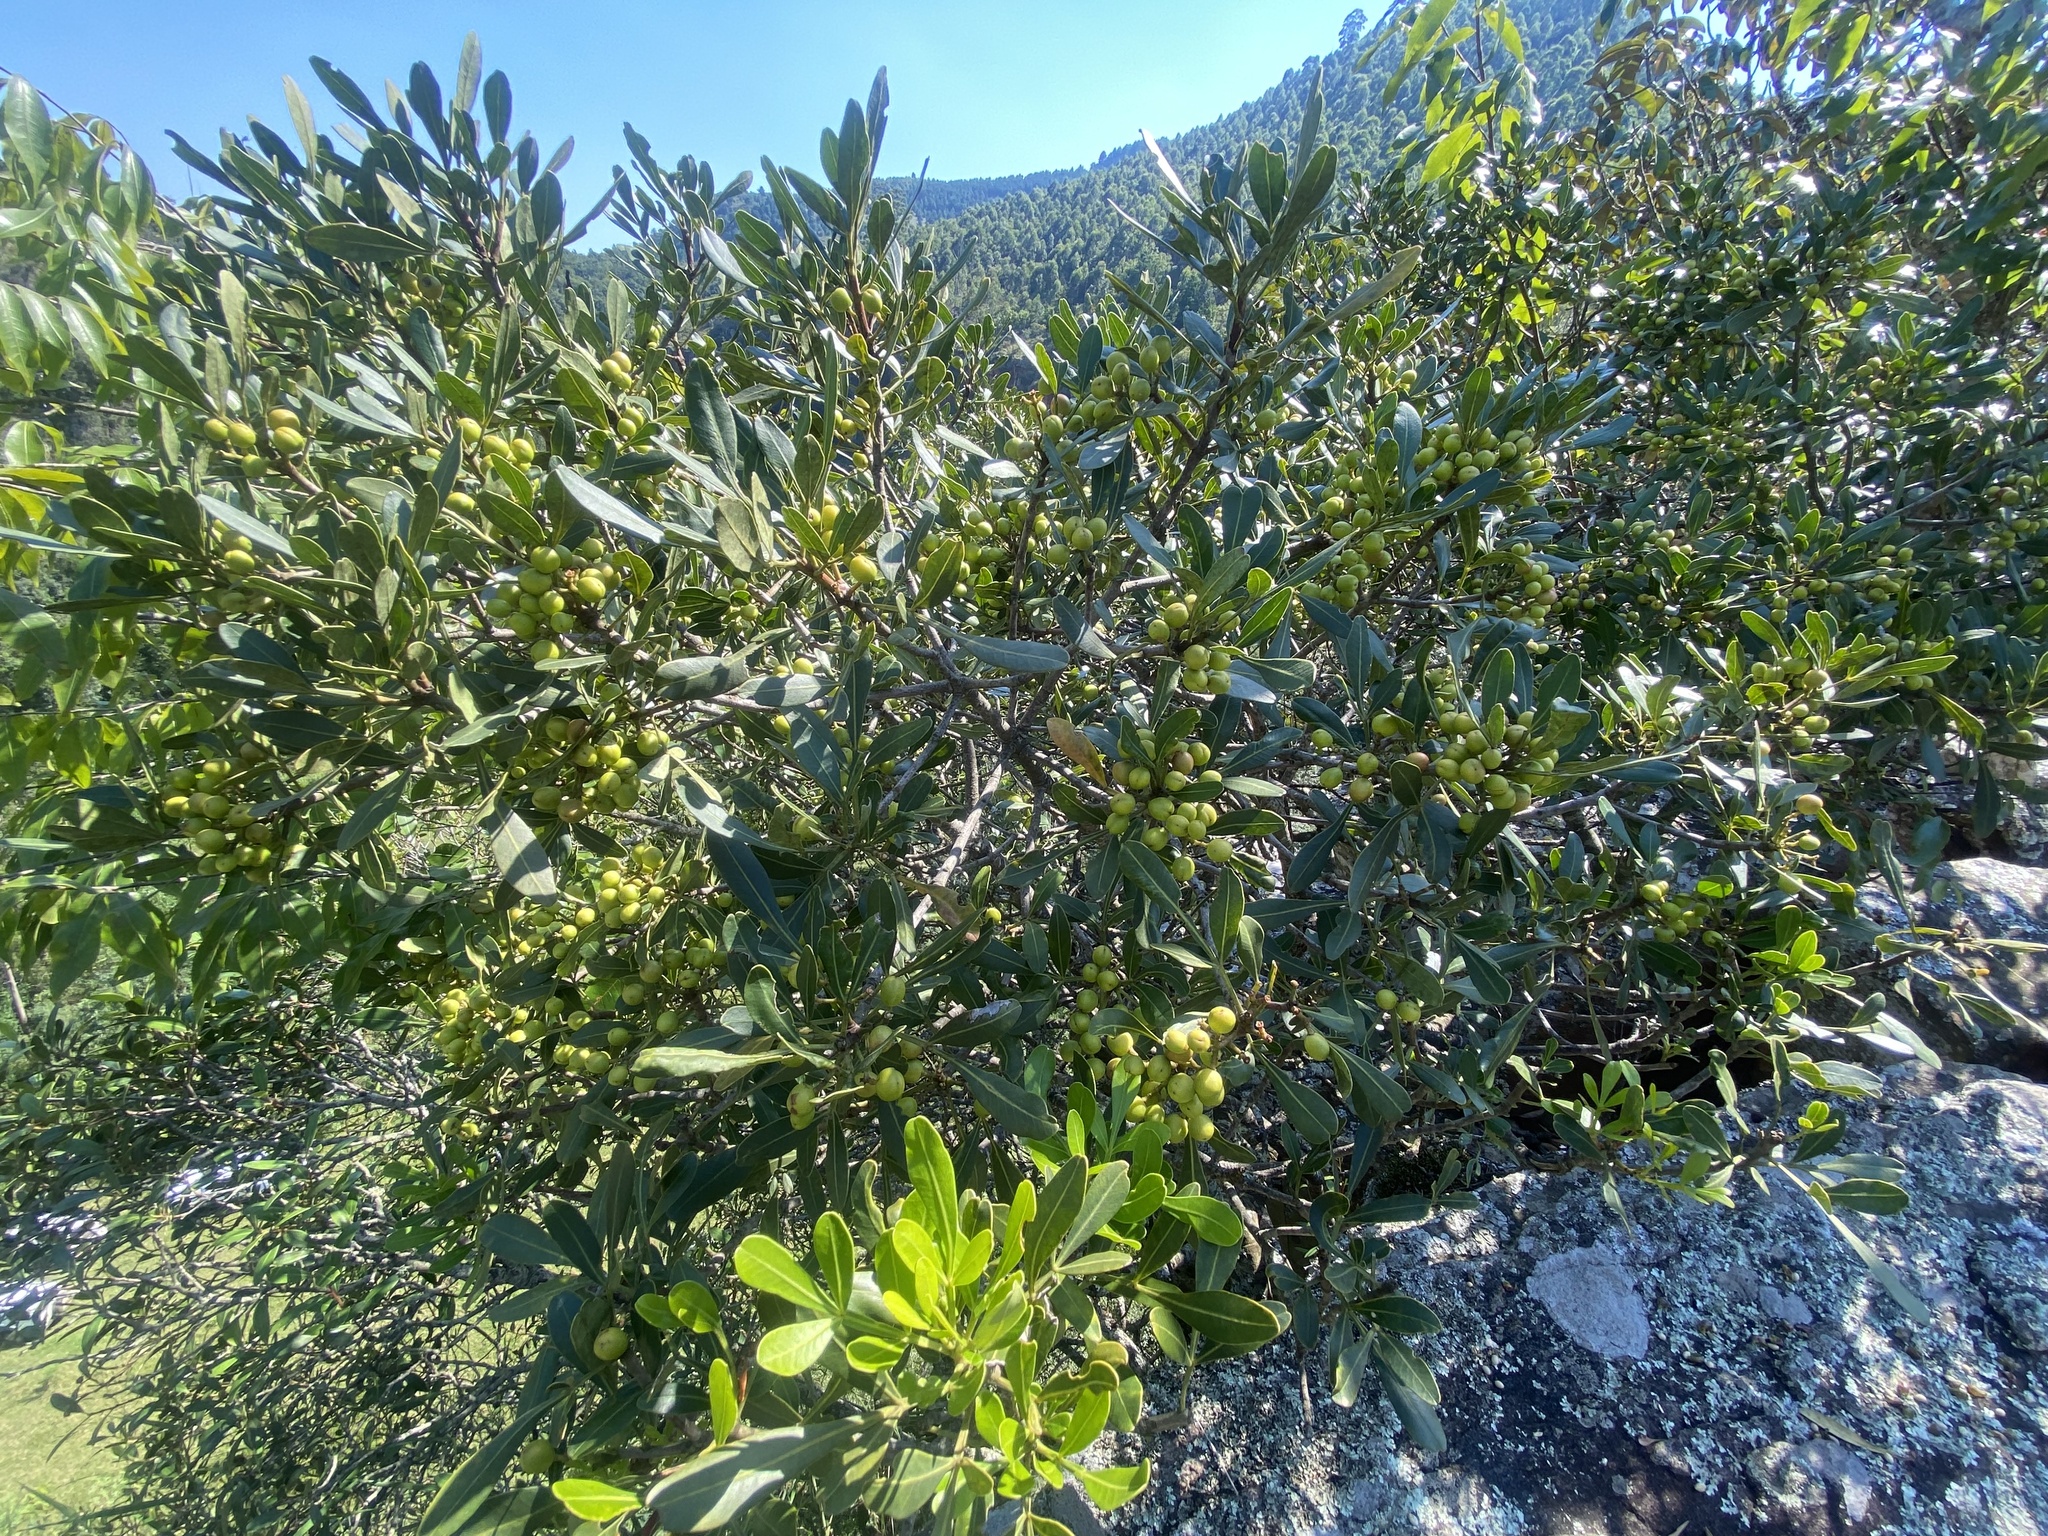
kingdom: Plantae
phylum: Tracheophyta
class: Magnoliopsida
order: Sapindales
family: Meliaceae
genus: Ekebergia
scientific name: Ekebergia pterophylla
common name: Cape ash
